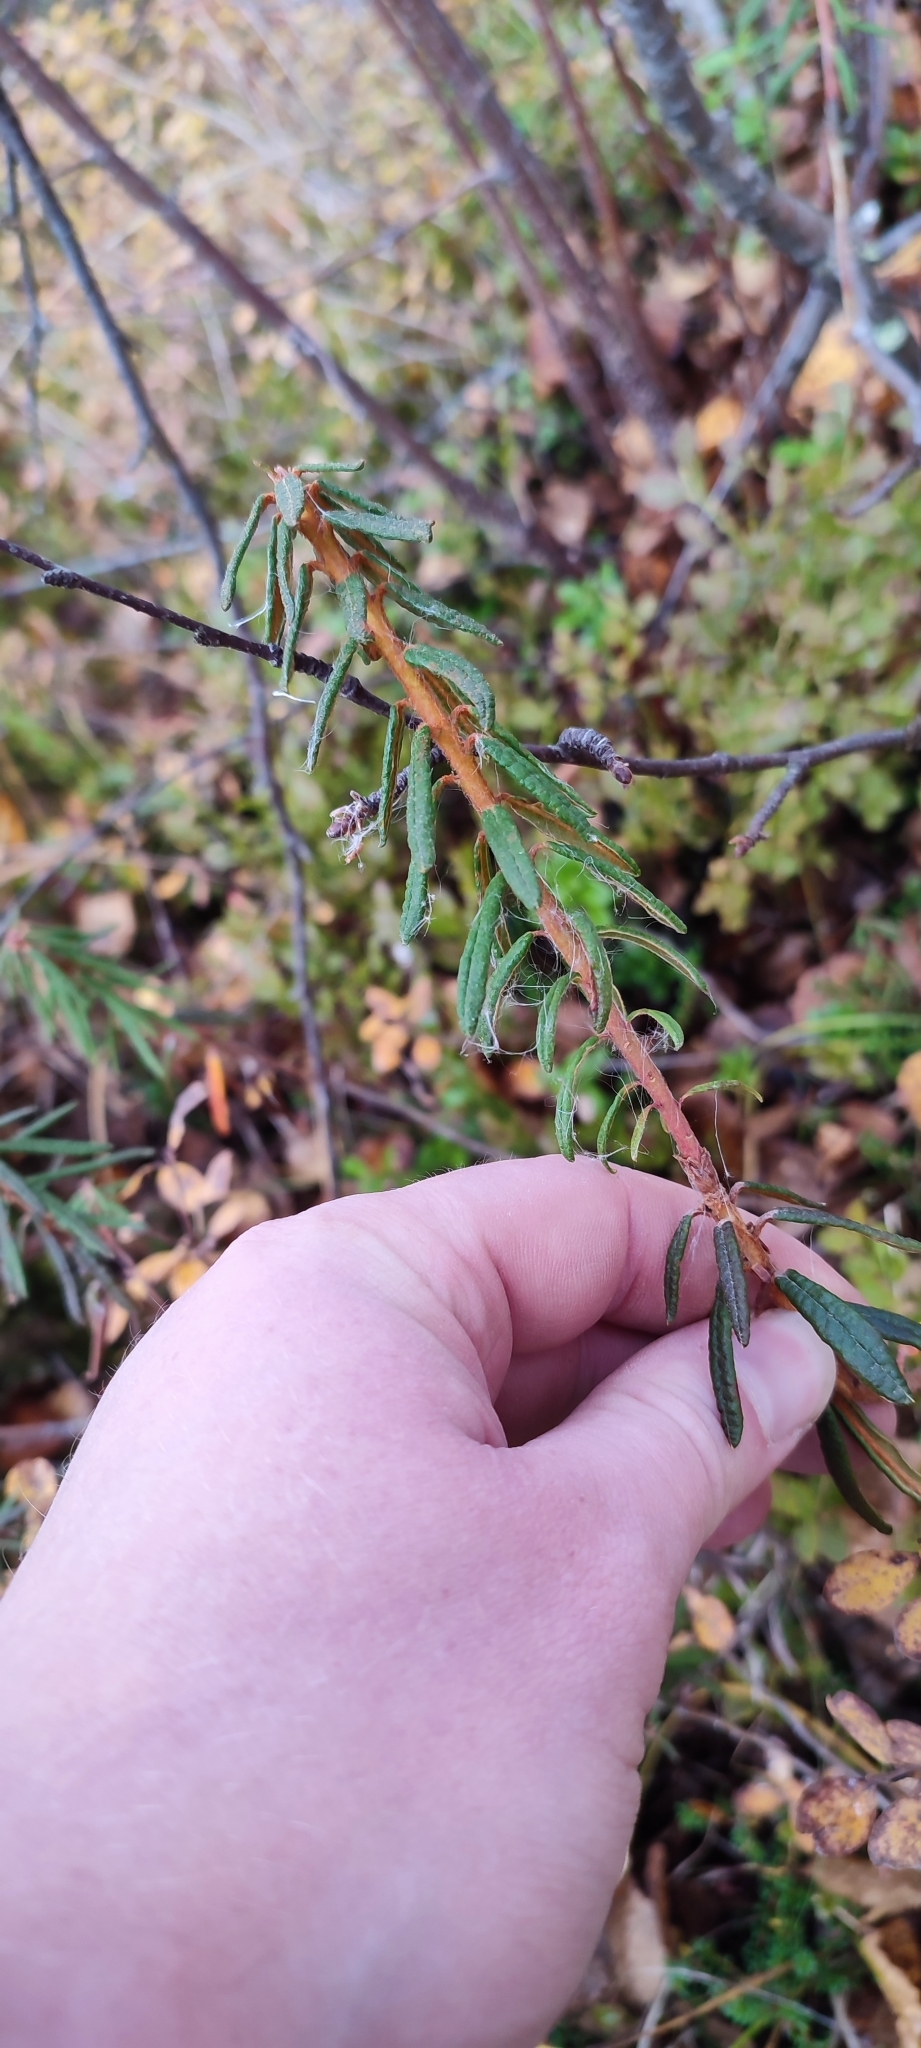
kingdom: Plantae
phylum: Tracheophyta
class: Magnoliopsida
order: Ericales
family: Ericaceae
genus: Rhododendron
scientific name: Rhododendron tomentosum
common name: Marsh labrador tea
